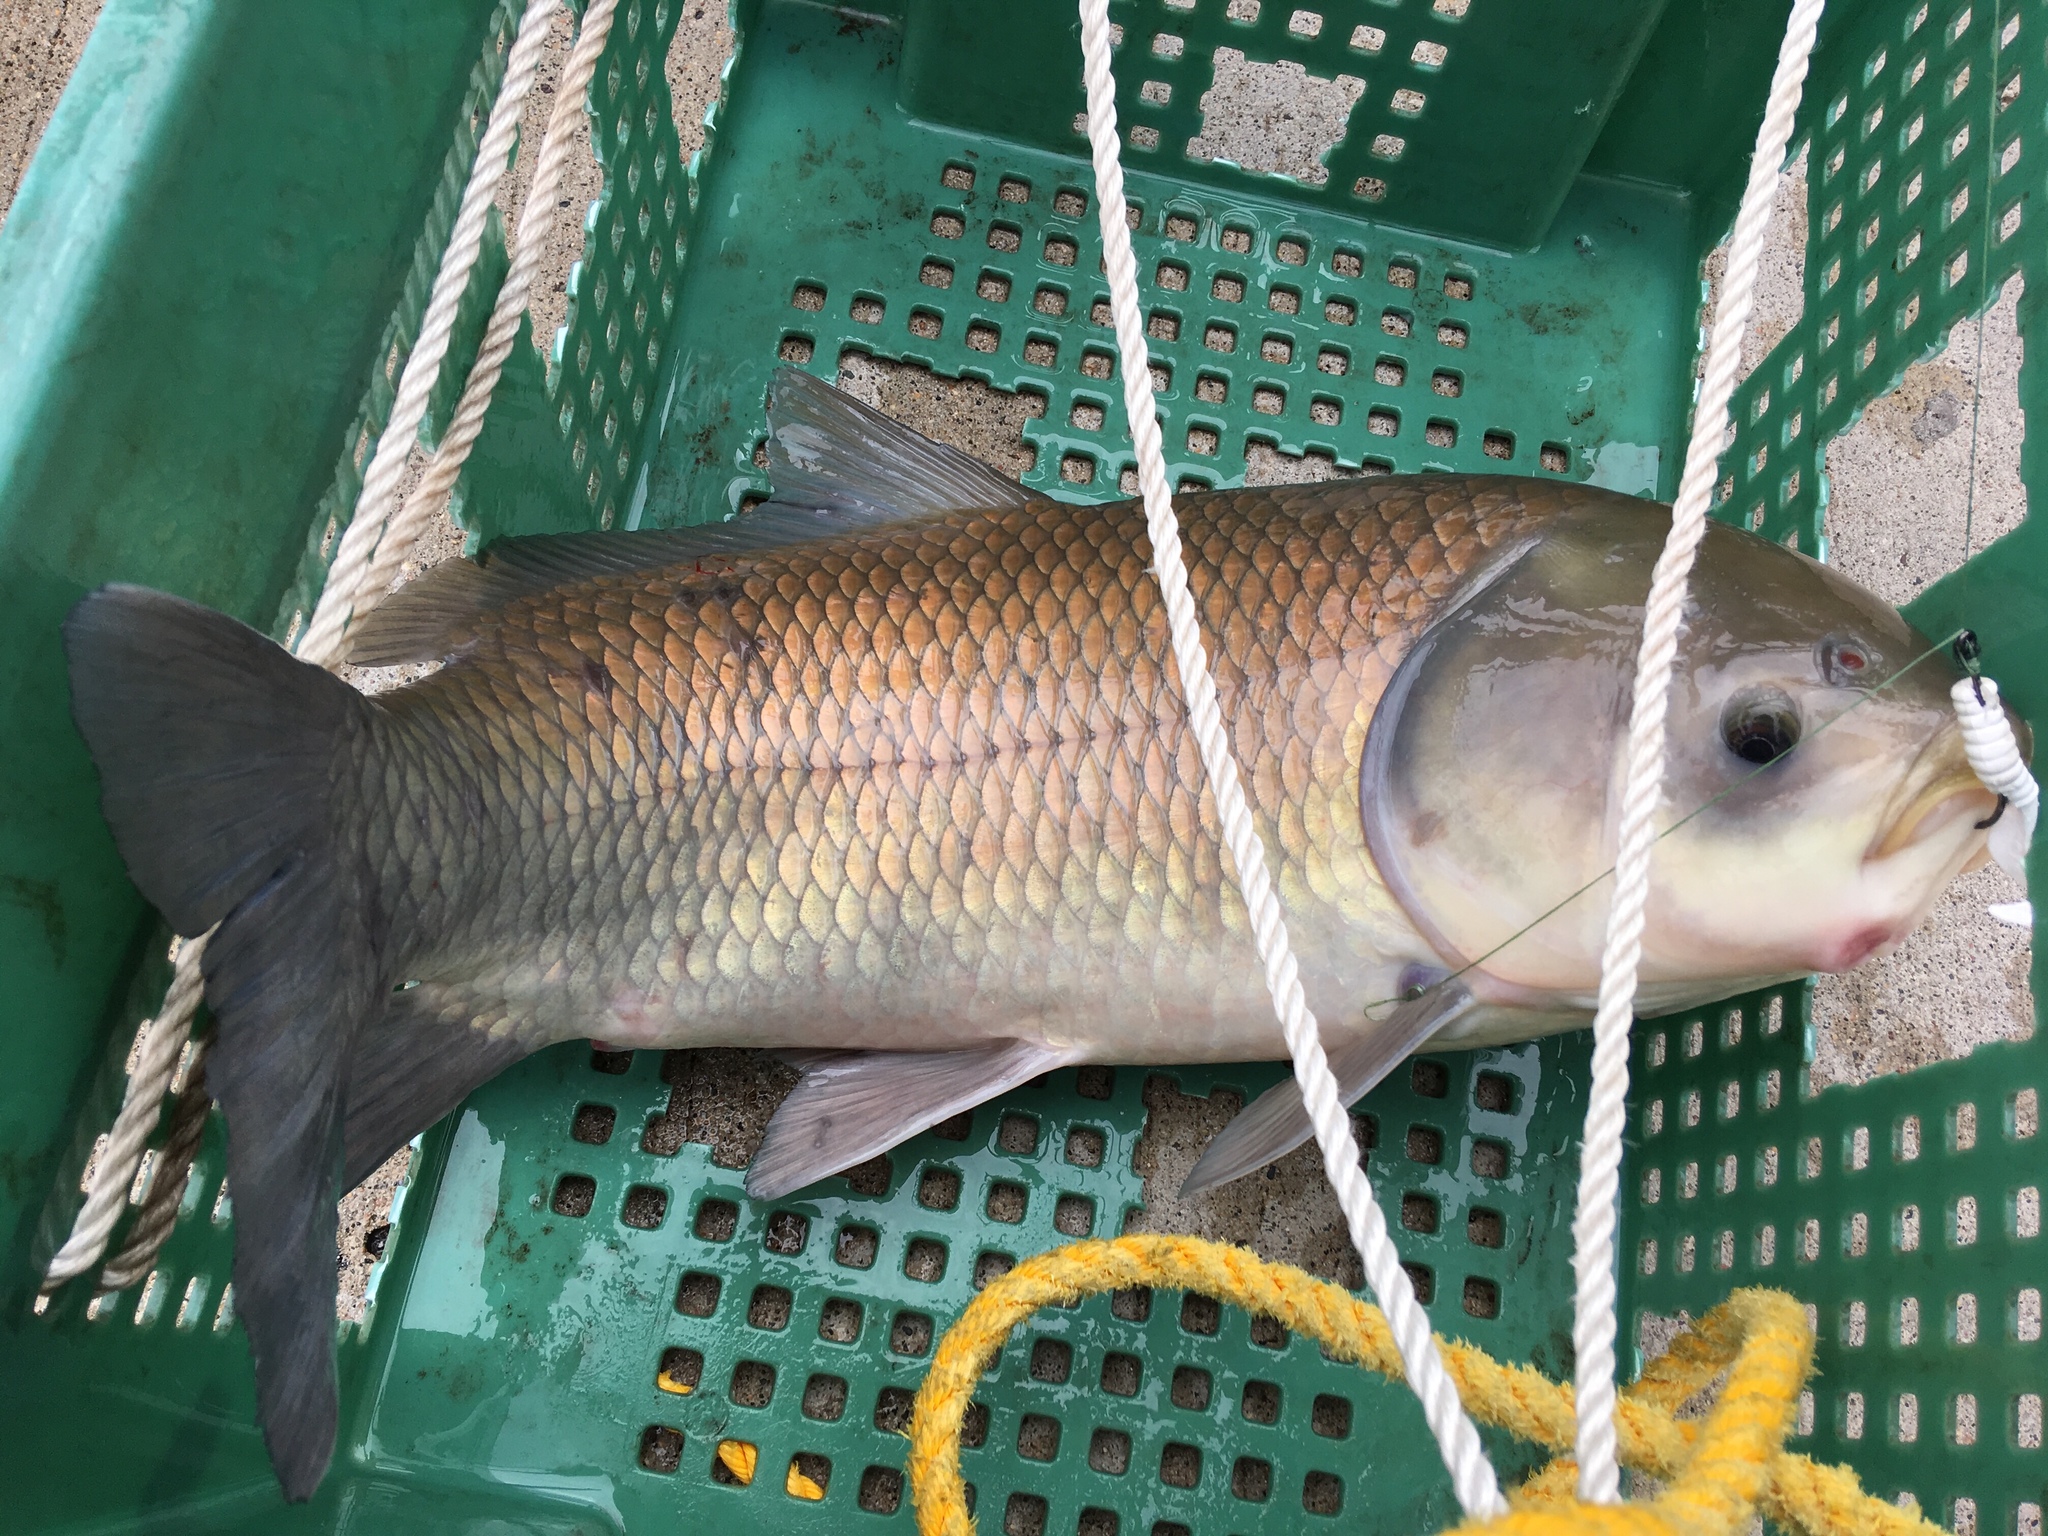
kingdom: Animalia
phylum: Chordata
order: Cypriniformes
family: Catostomidae
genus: Ictiobus
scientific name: Ictiobus cyprinellus
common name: Bigmouth buffalo
